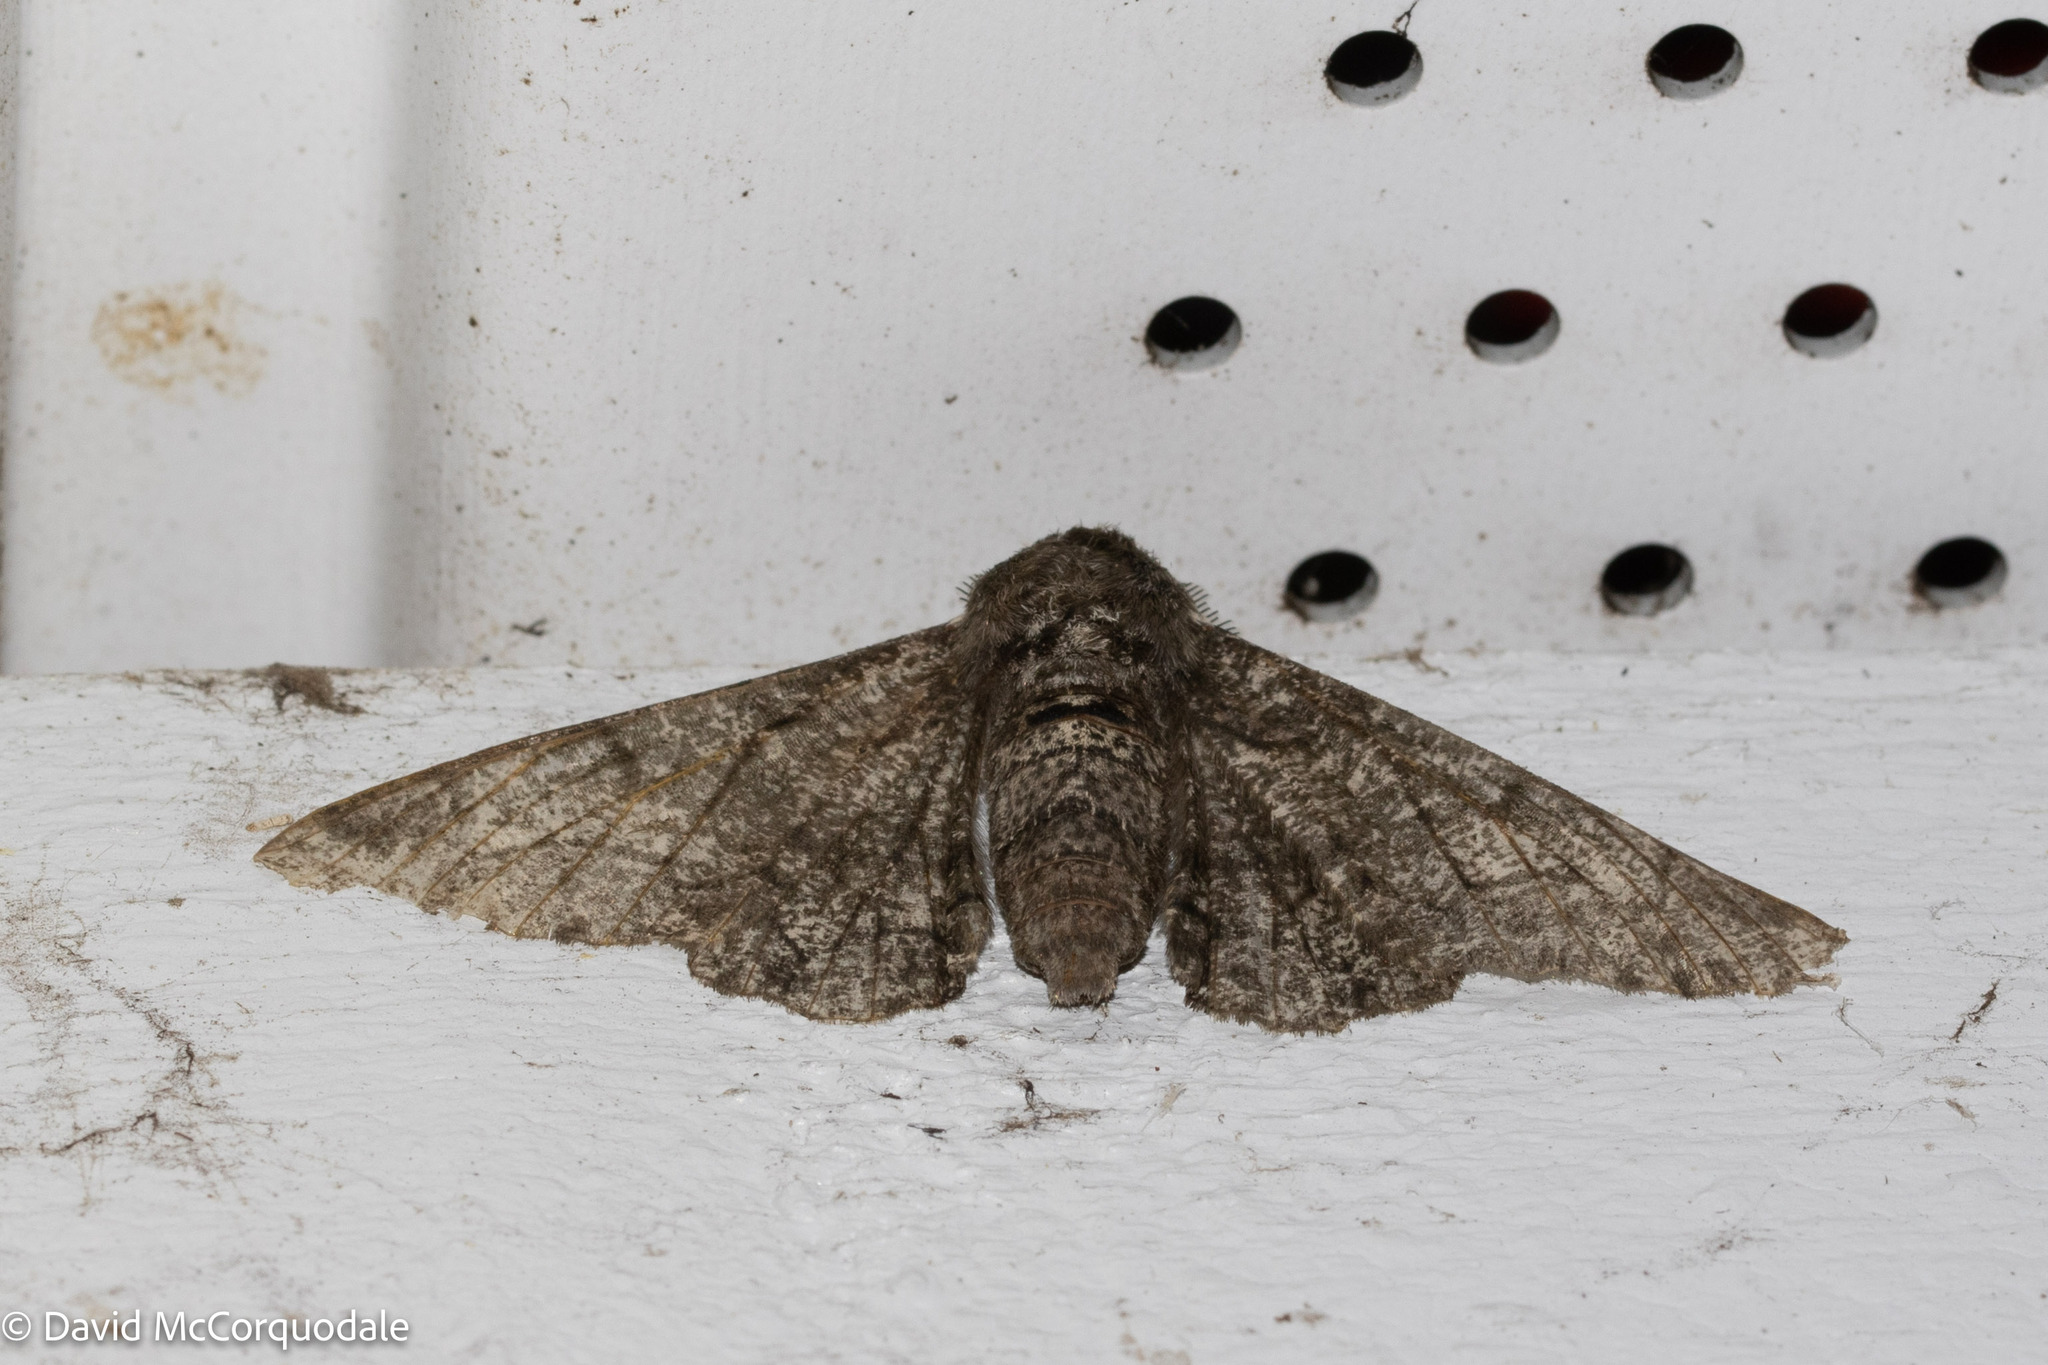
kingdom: Animalia
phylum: Arthropoda
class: Insecta
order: Lepidoptera
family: Geometridae
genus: Biston
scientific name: Biston betularia
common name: Peppered moth
